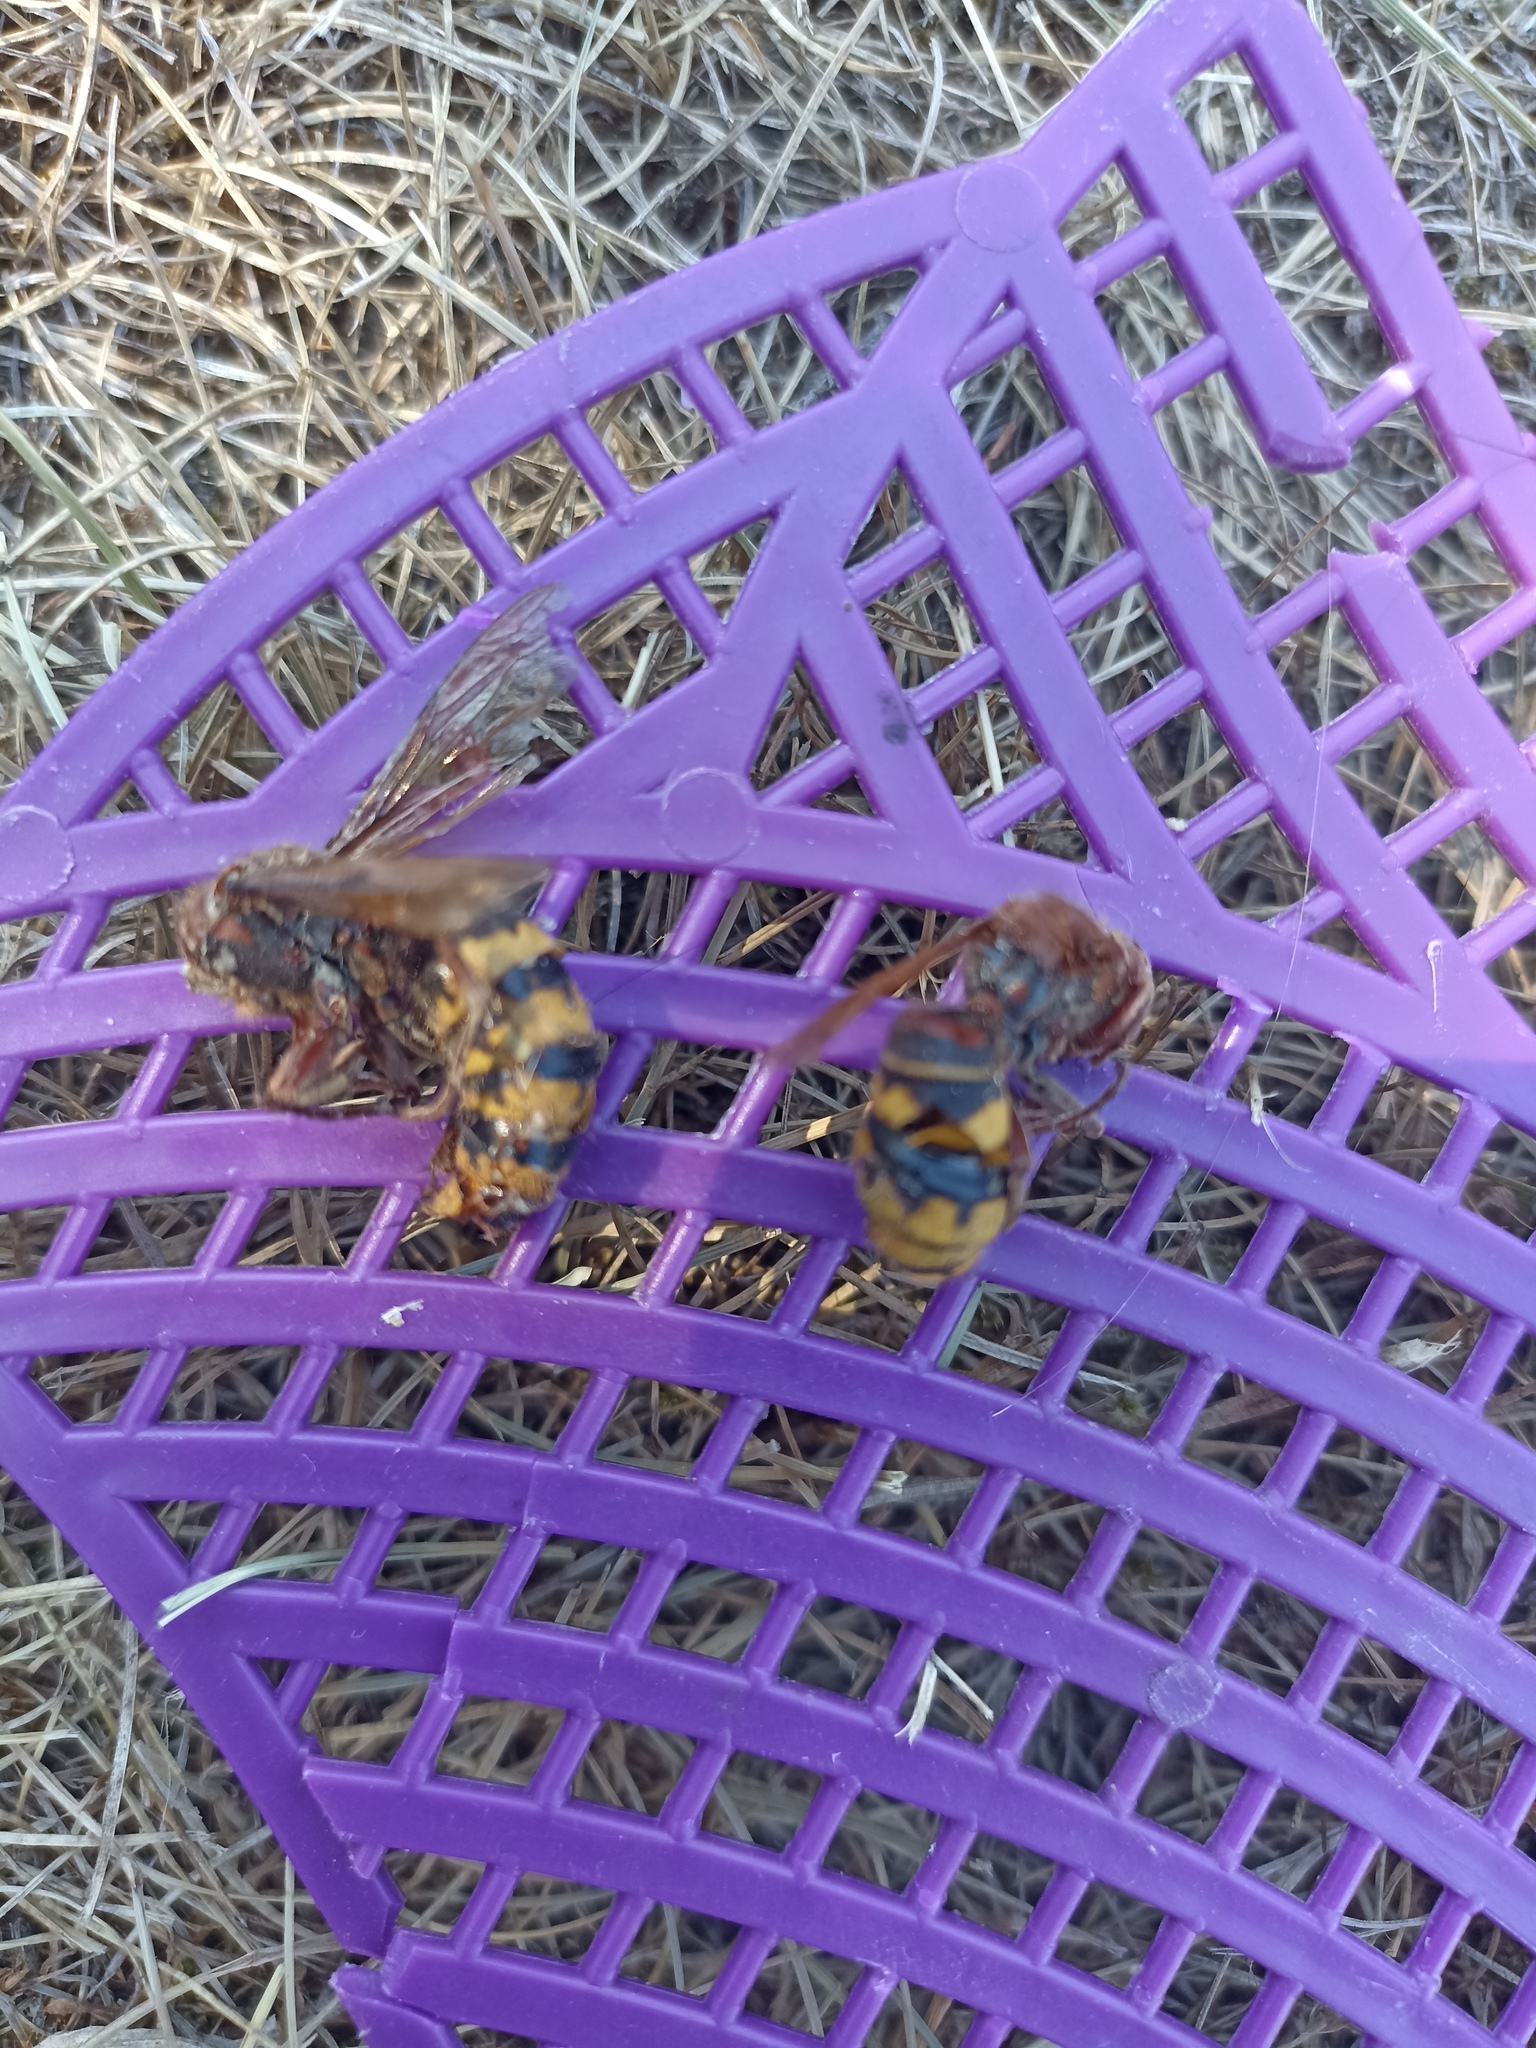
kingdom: Animalia
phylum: Arthropoda
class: Insecta
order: Hymenoptera
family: Vespidae
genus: Vespa
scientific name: Vespa crabro
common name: Hornet
